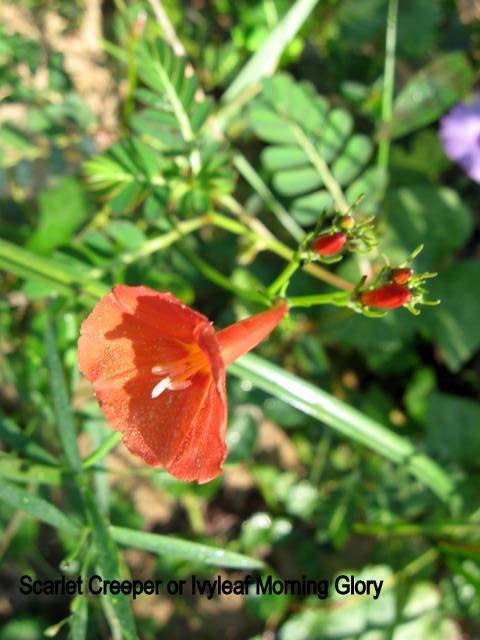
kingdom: Plantae
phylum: Tracheophyta
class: Magnoliopsida
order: Solanales
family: Convolvulaceae
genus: Ipomoea
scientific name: Ipomoea hederifolia
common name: Ivy-leaf morning-glory
